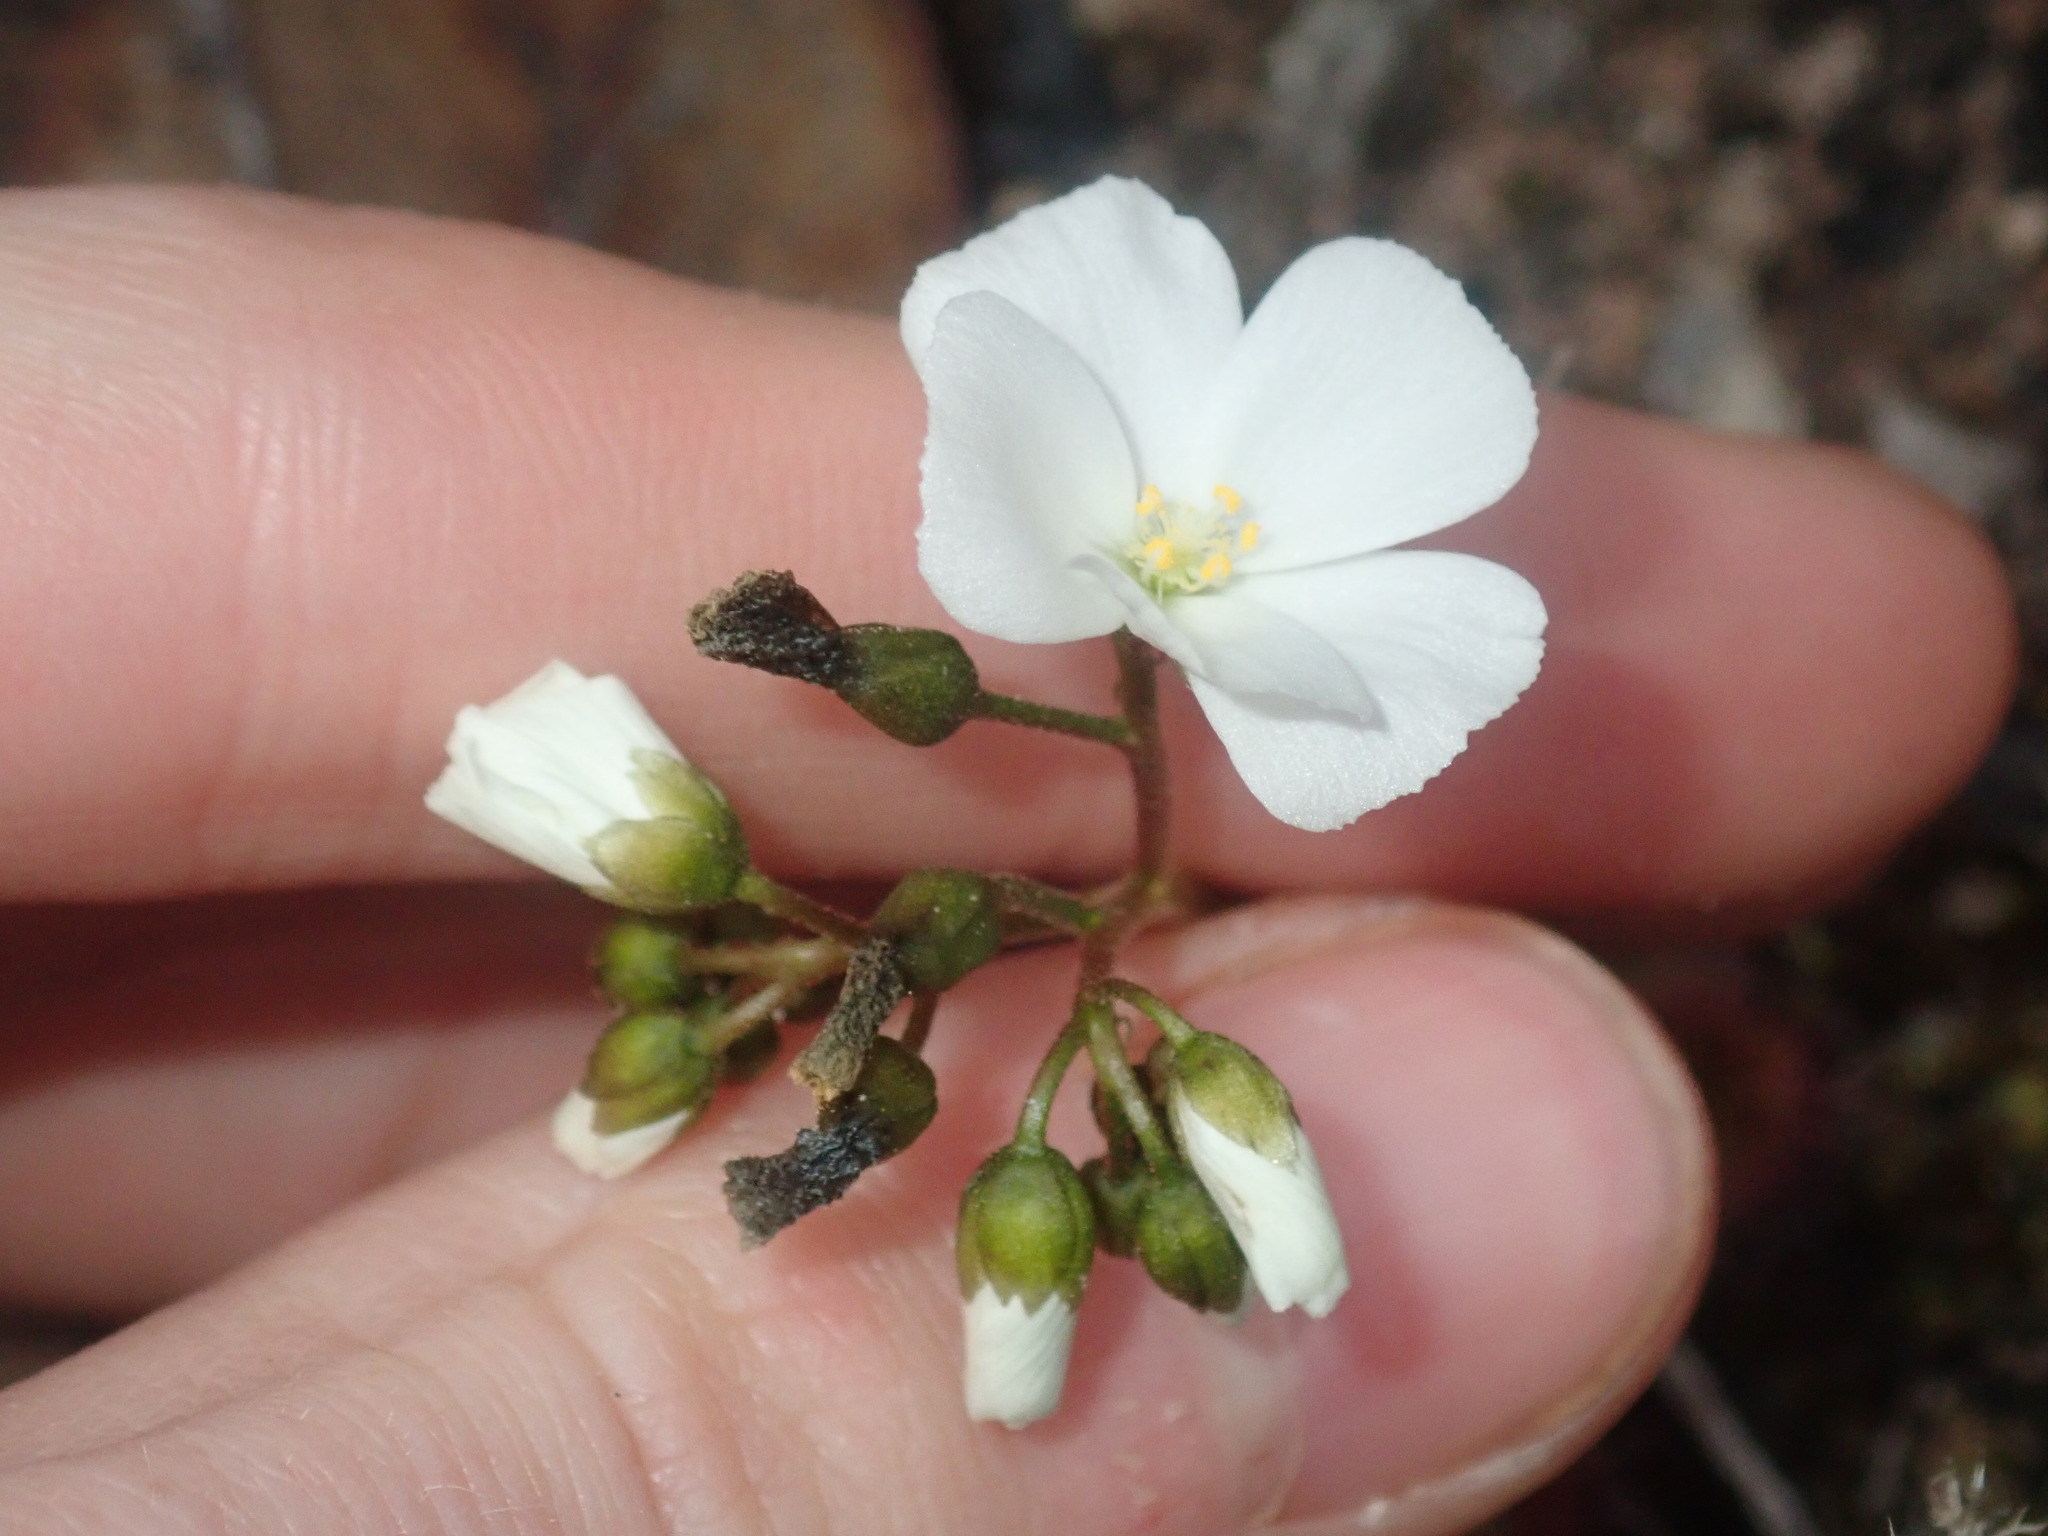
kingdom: Plantae
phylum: Tracheophyta
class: Magnoliopsida
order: Caryophyllales
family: Droseraceae
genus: Drosera
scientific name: Drosera stolonifera
